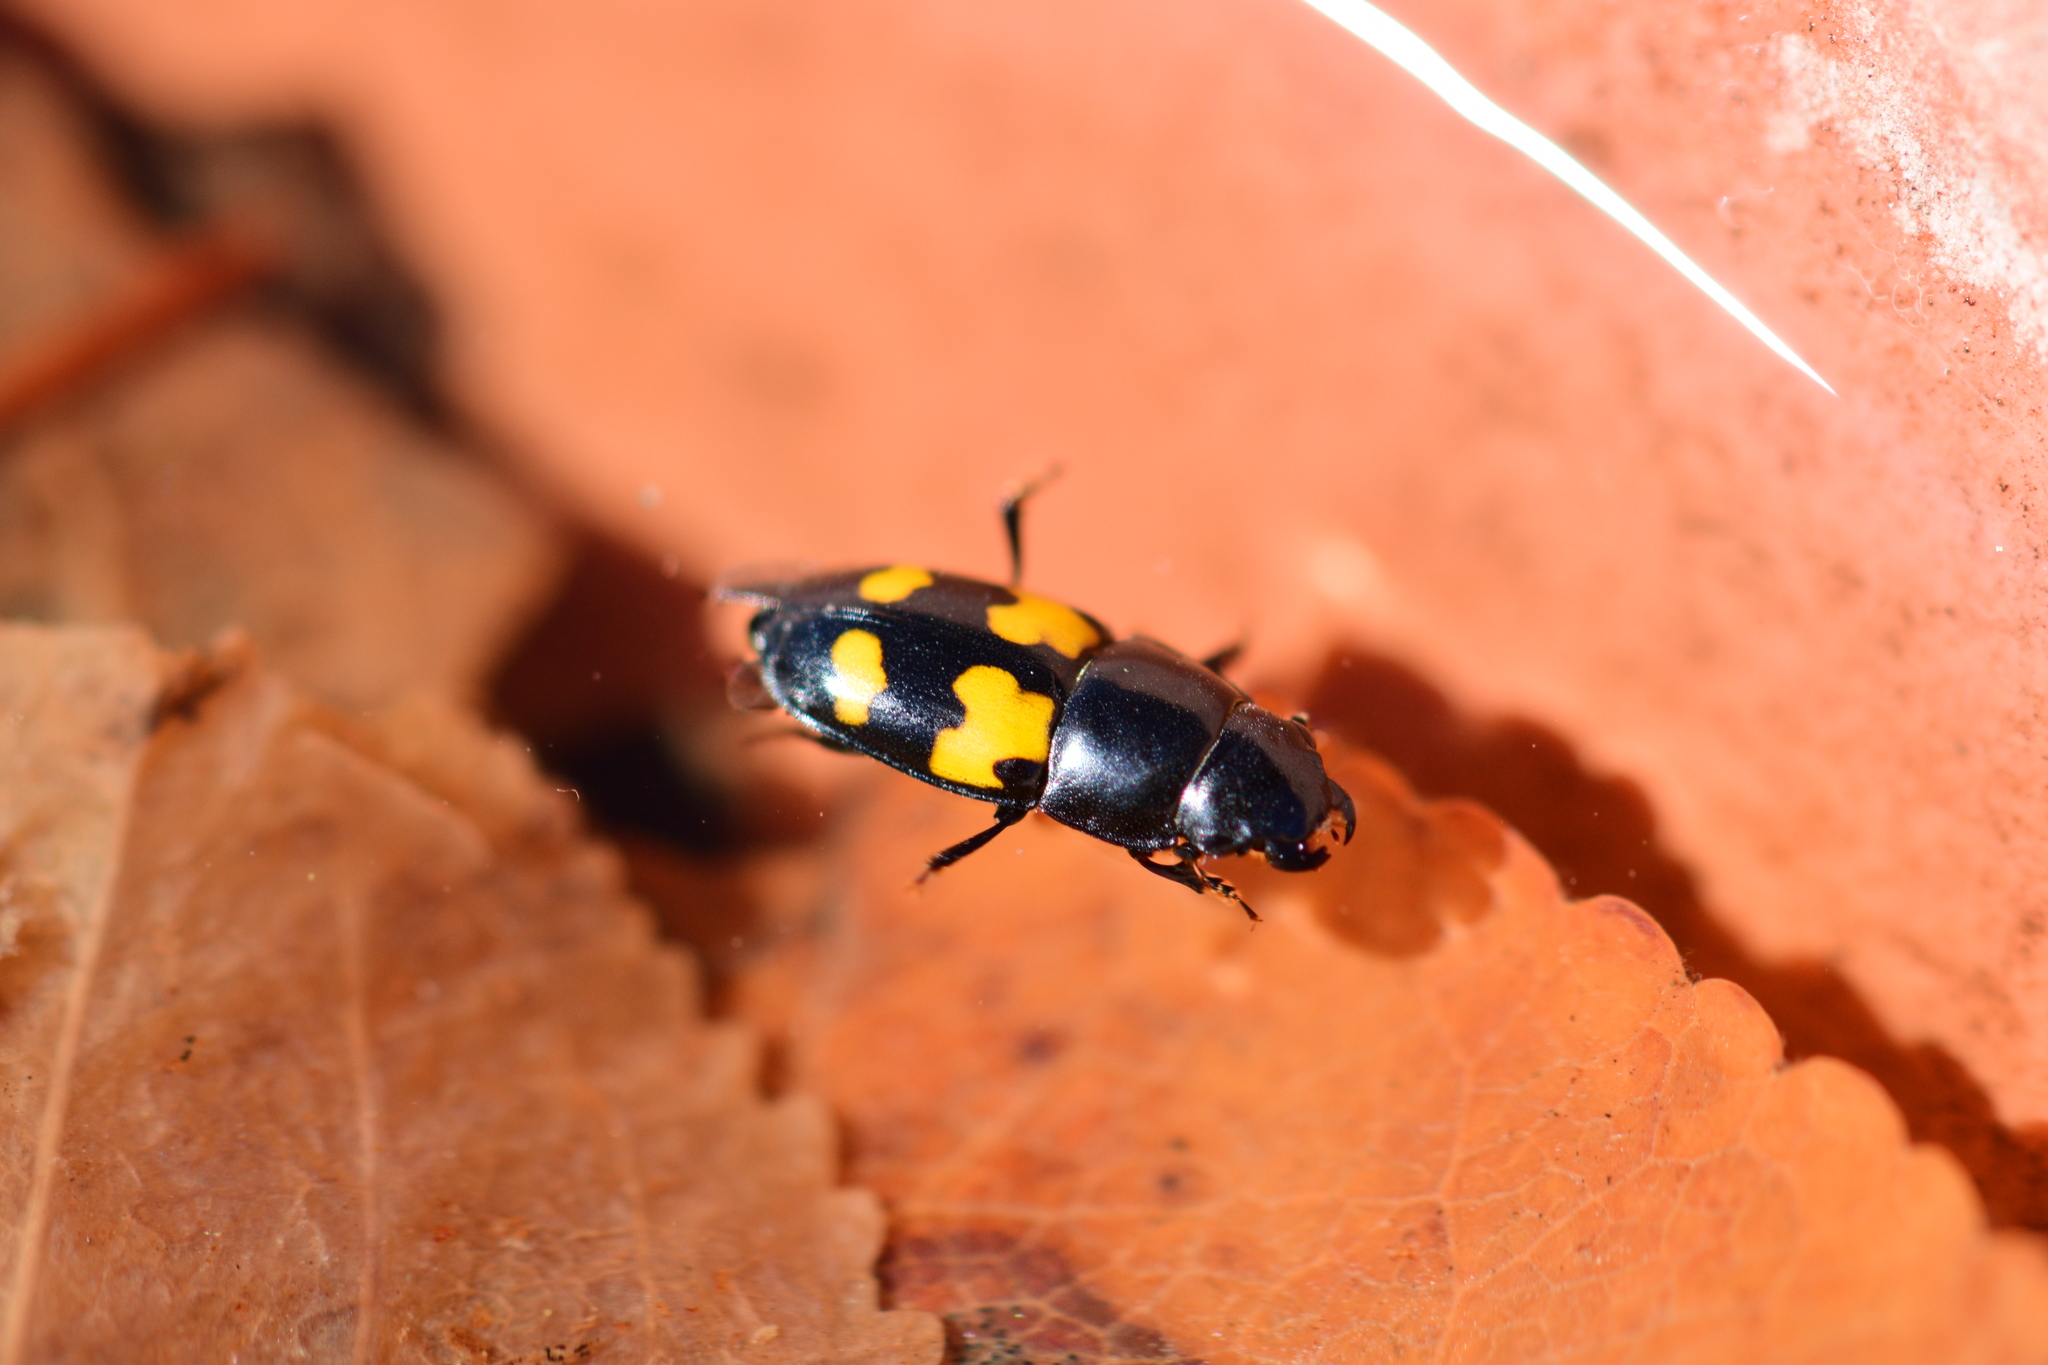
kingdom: Animalia
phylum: Arthropoda
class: Insecta
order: Coleoptera
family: Nitidulidae
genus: Glischrochilus
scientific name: Glischrochilus fasciatus
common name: Picnic beetle
